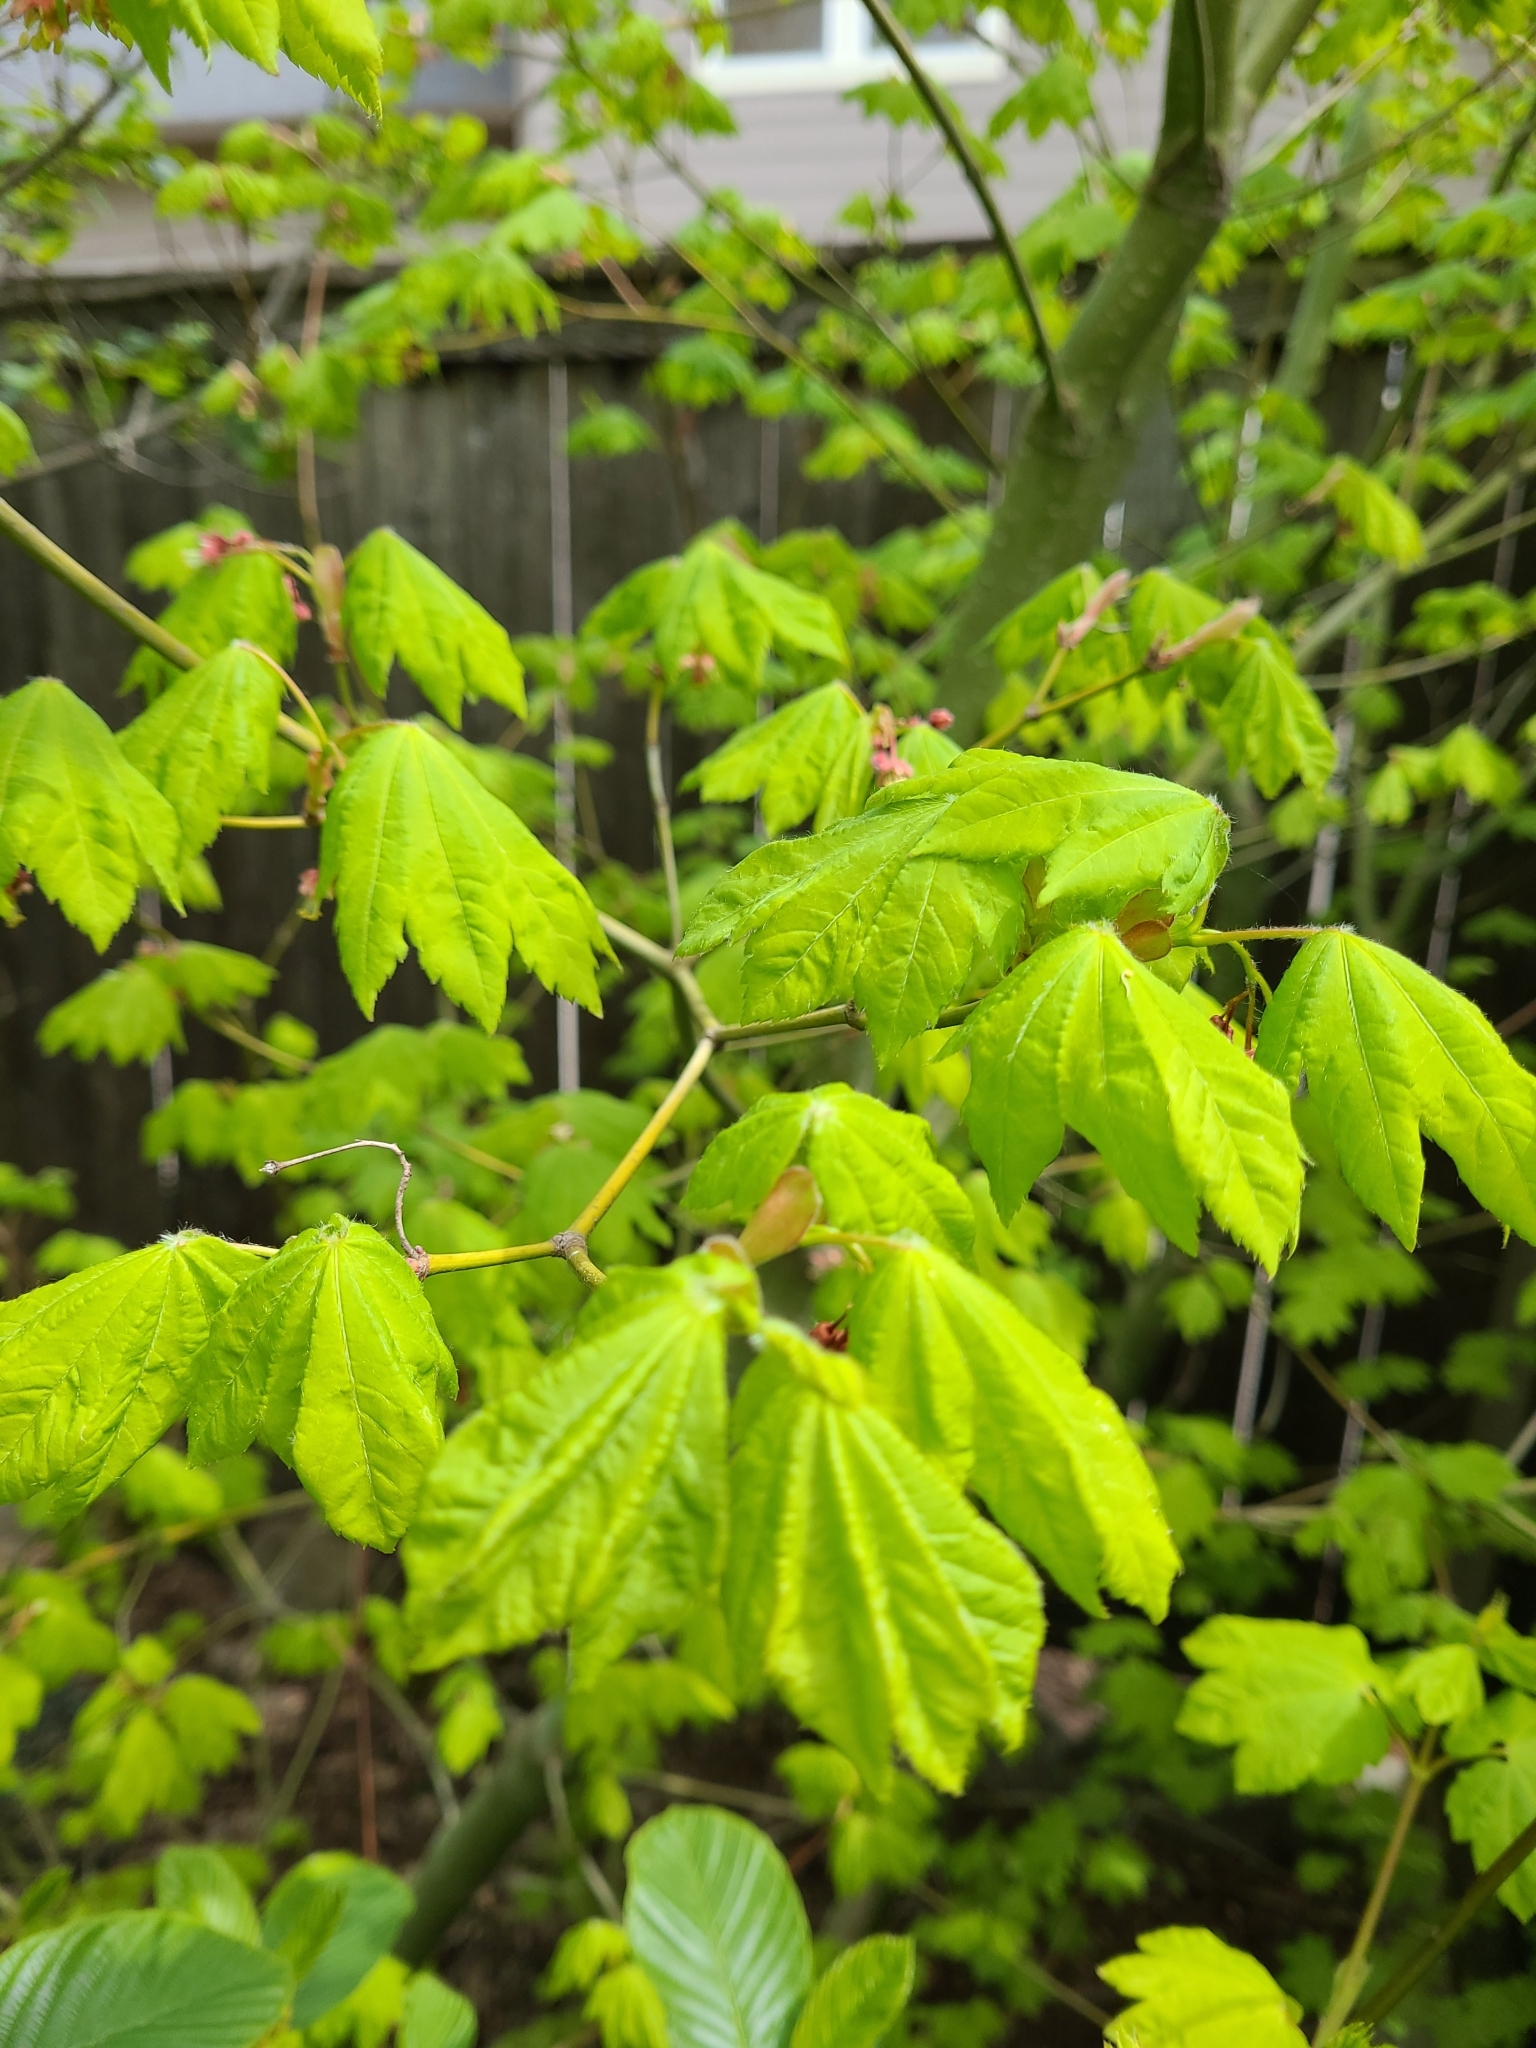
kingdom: Plantae
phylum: Tracheophyta
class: Magnoliopsida
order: Sapindales
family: Sapindaceae
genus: Acer
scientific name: Acer circinatum
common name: Vine maple
